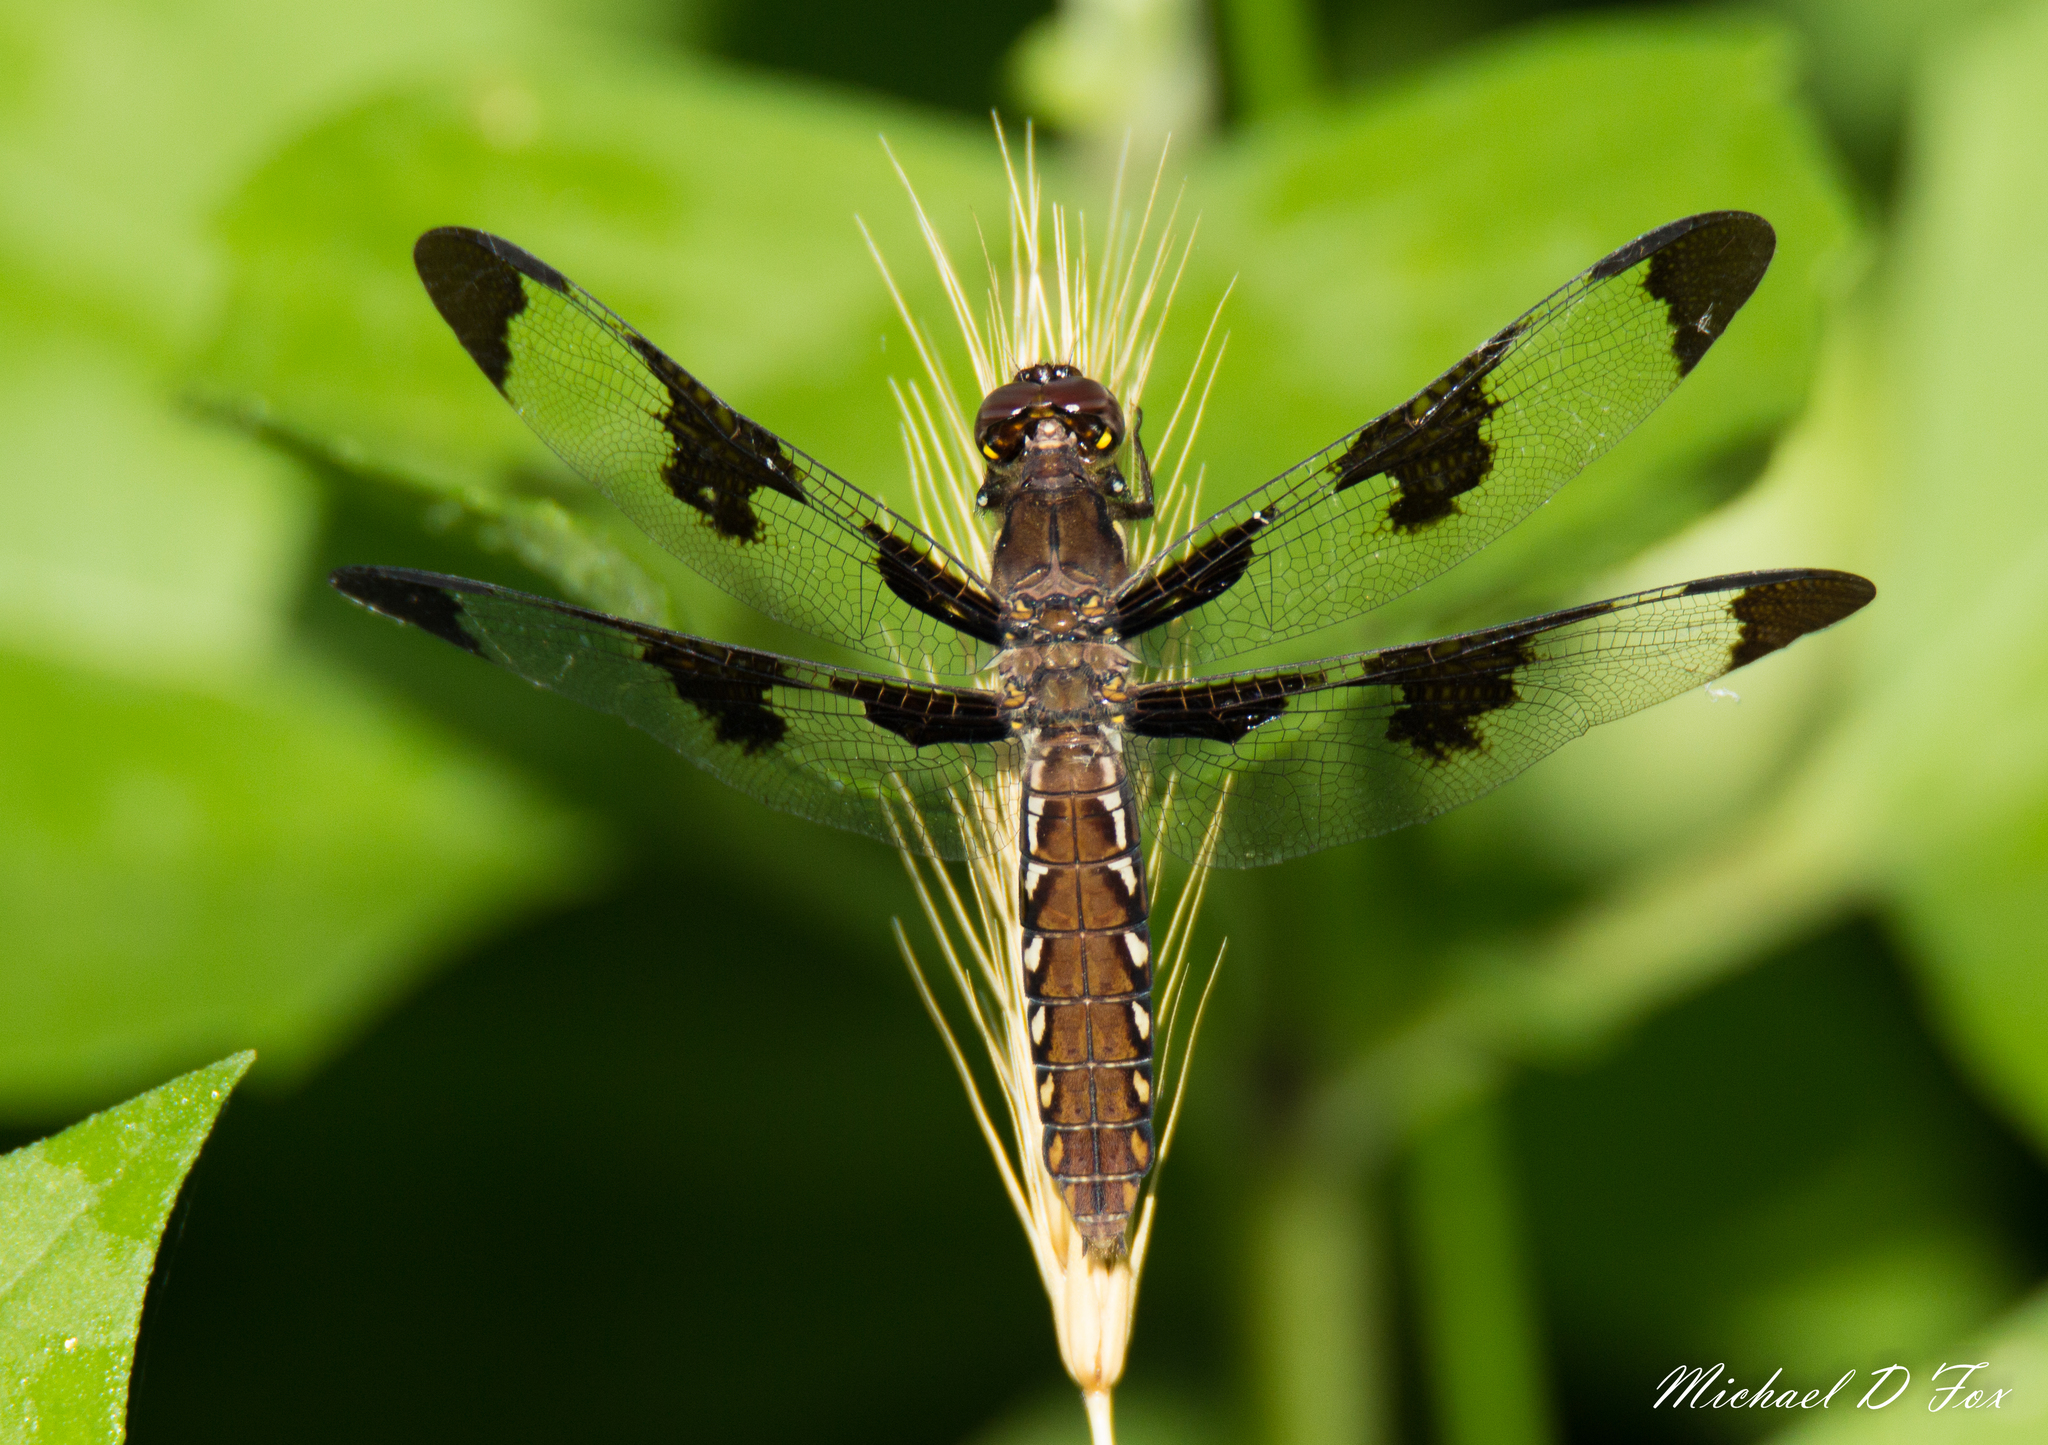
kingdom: Animalia
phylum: Arthropoda
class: Insecta
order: Odonata
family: Libellulidae
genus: Plathemis
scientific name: Plathemis lydia
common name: Common whitetail
